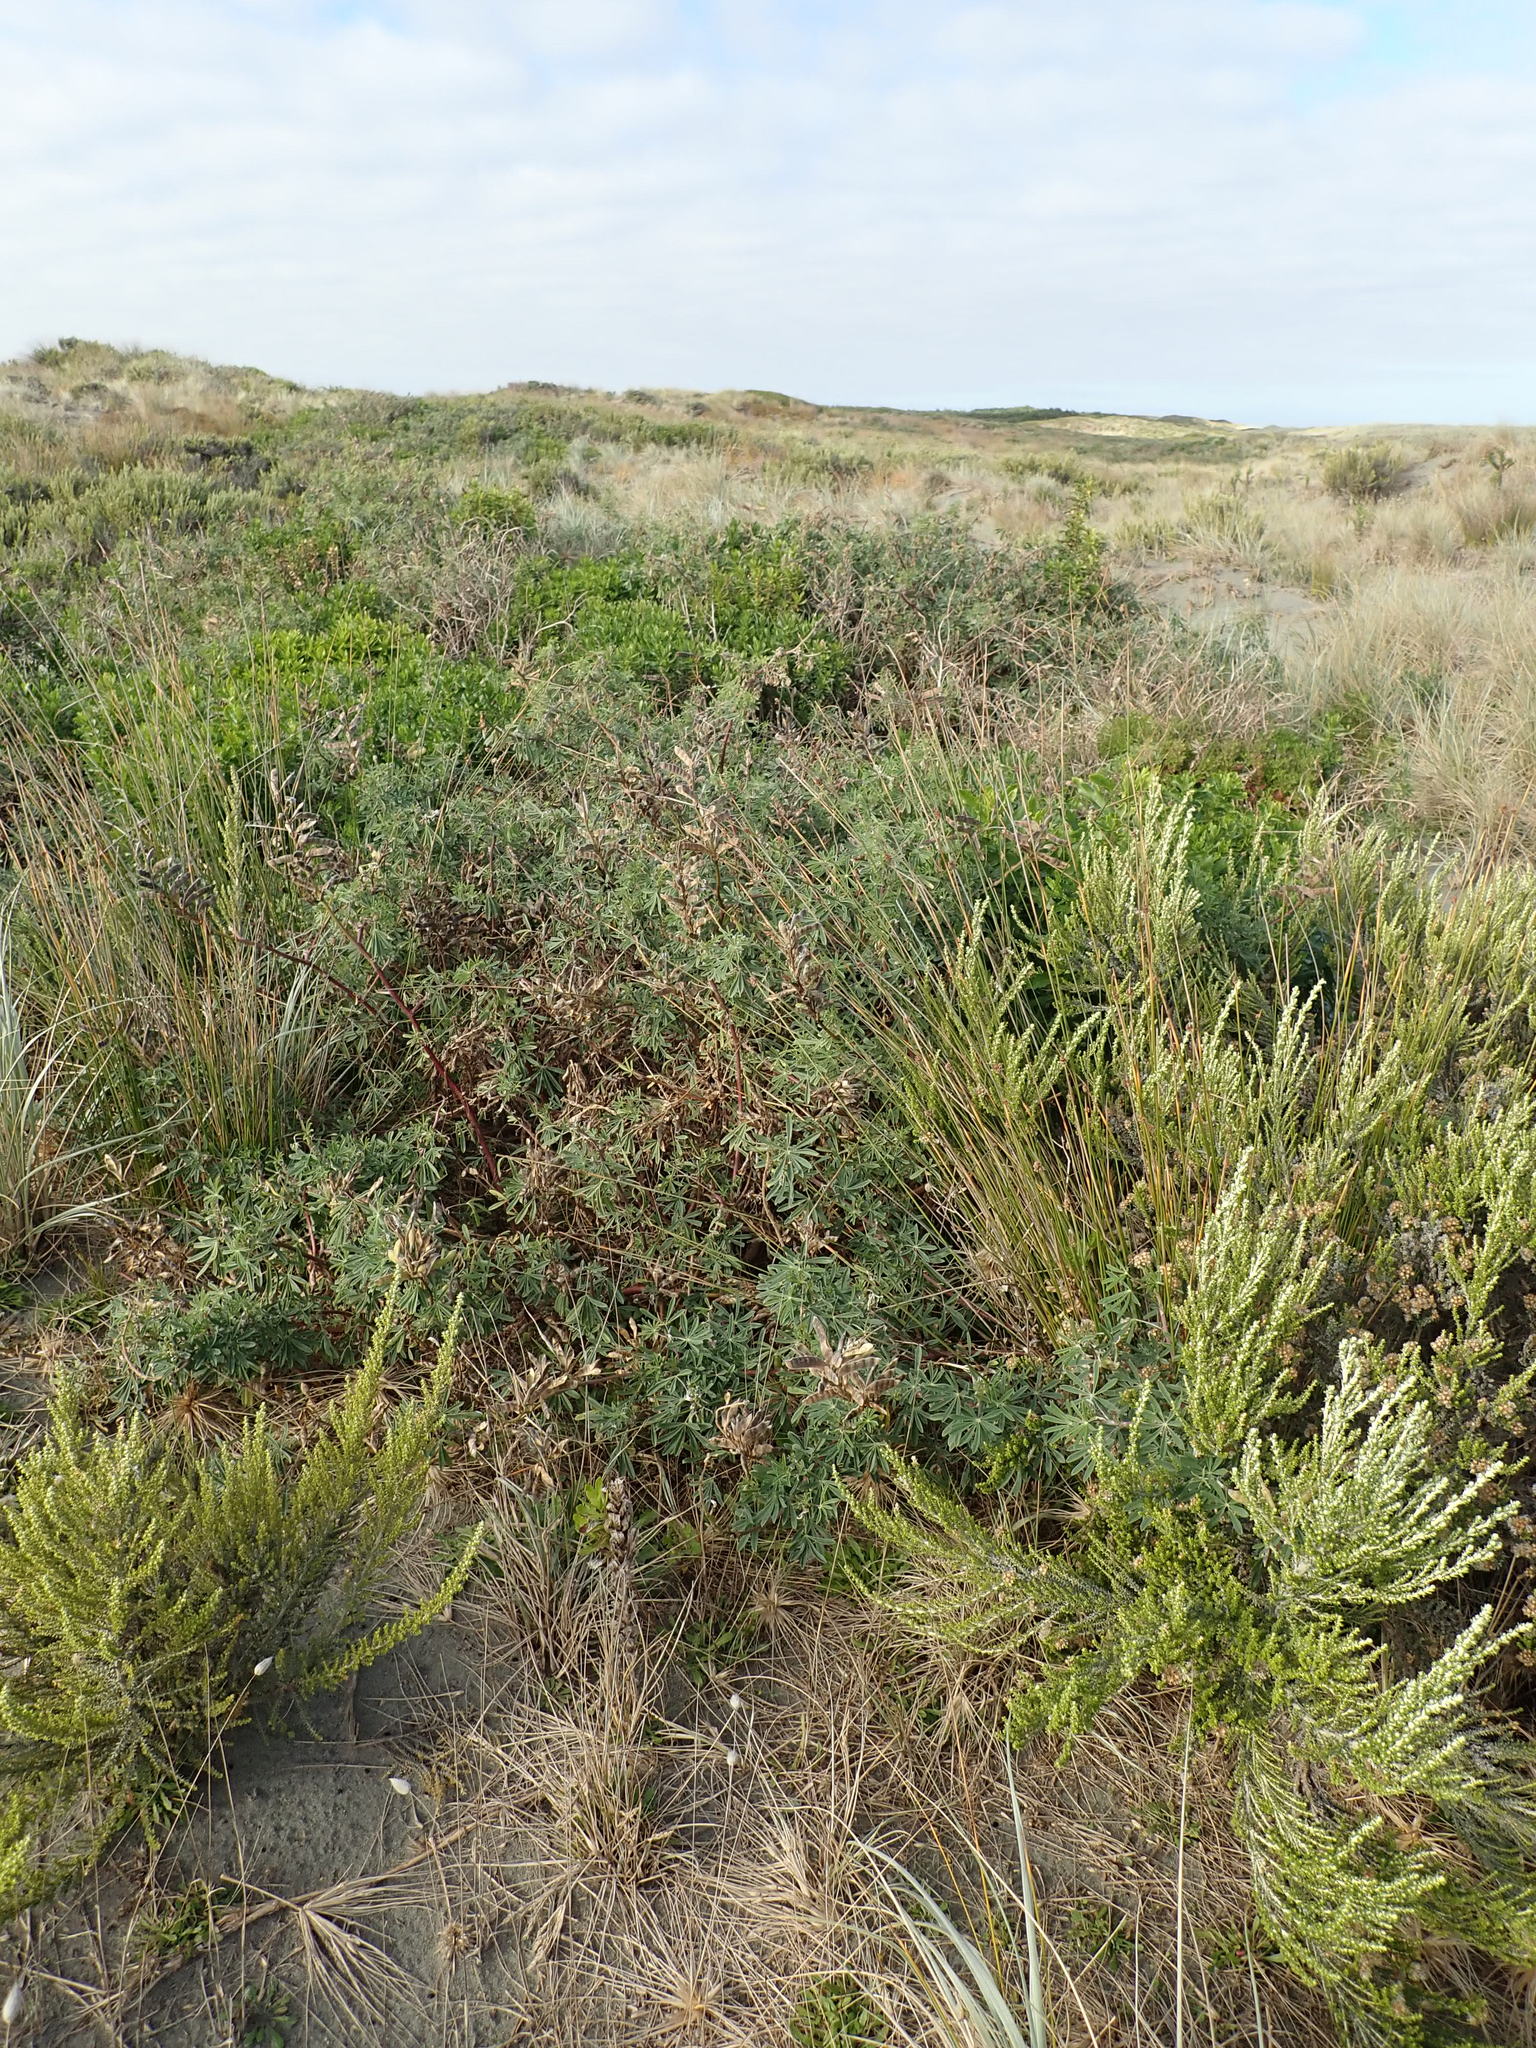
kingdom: Plantae
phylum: Tracheophyta
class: Magnoliopsida
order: Fabales
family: Fabaceae
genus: Lupinus
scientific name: Lupinus arboreus
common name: Yellow bush lupine
